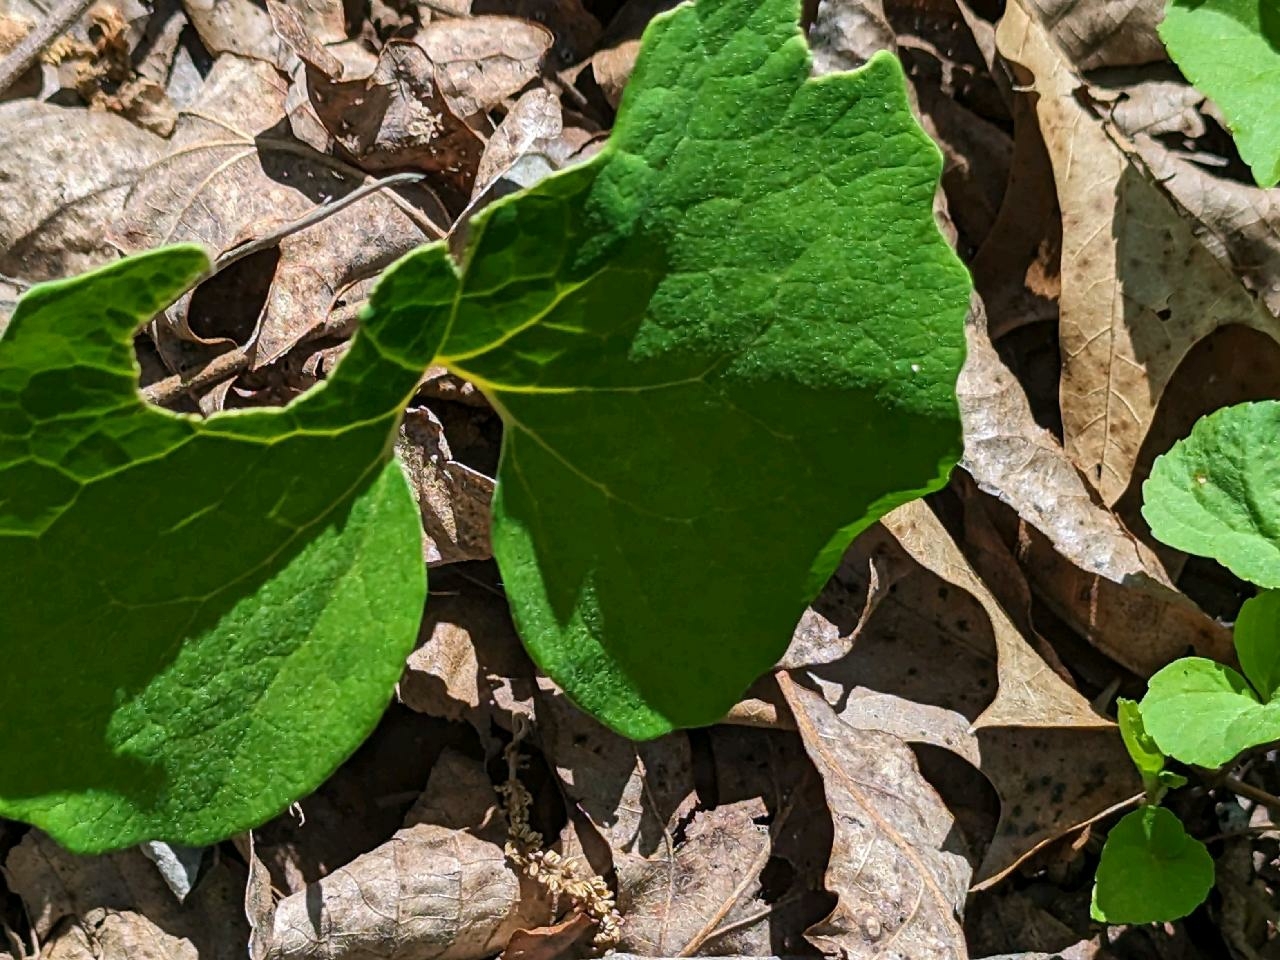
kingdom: Plantae
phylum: Tracheophyta
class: Magnoliopsida
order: Ranunculales
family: Papaveraceae
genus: Sanguinaria
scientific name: Sanguinaria canadensis
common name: Bloodroot
